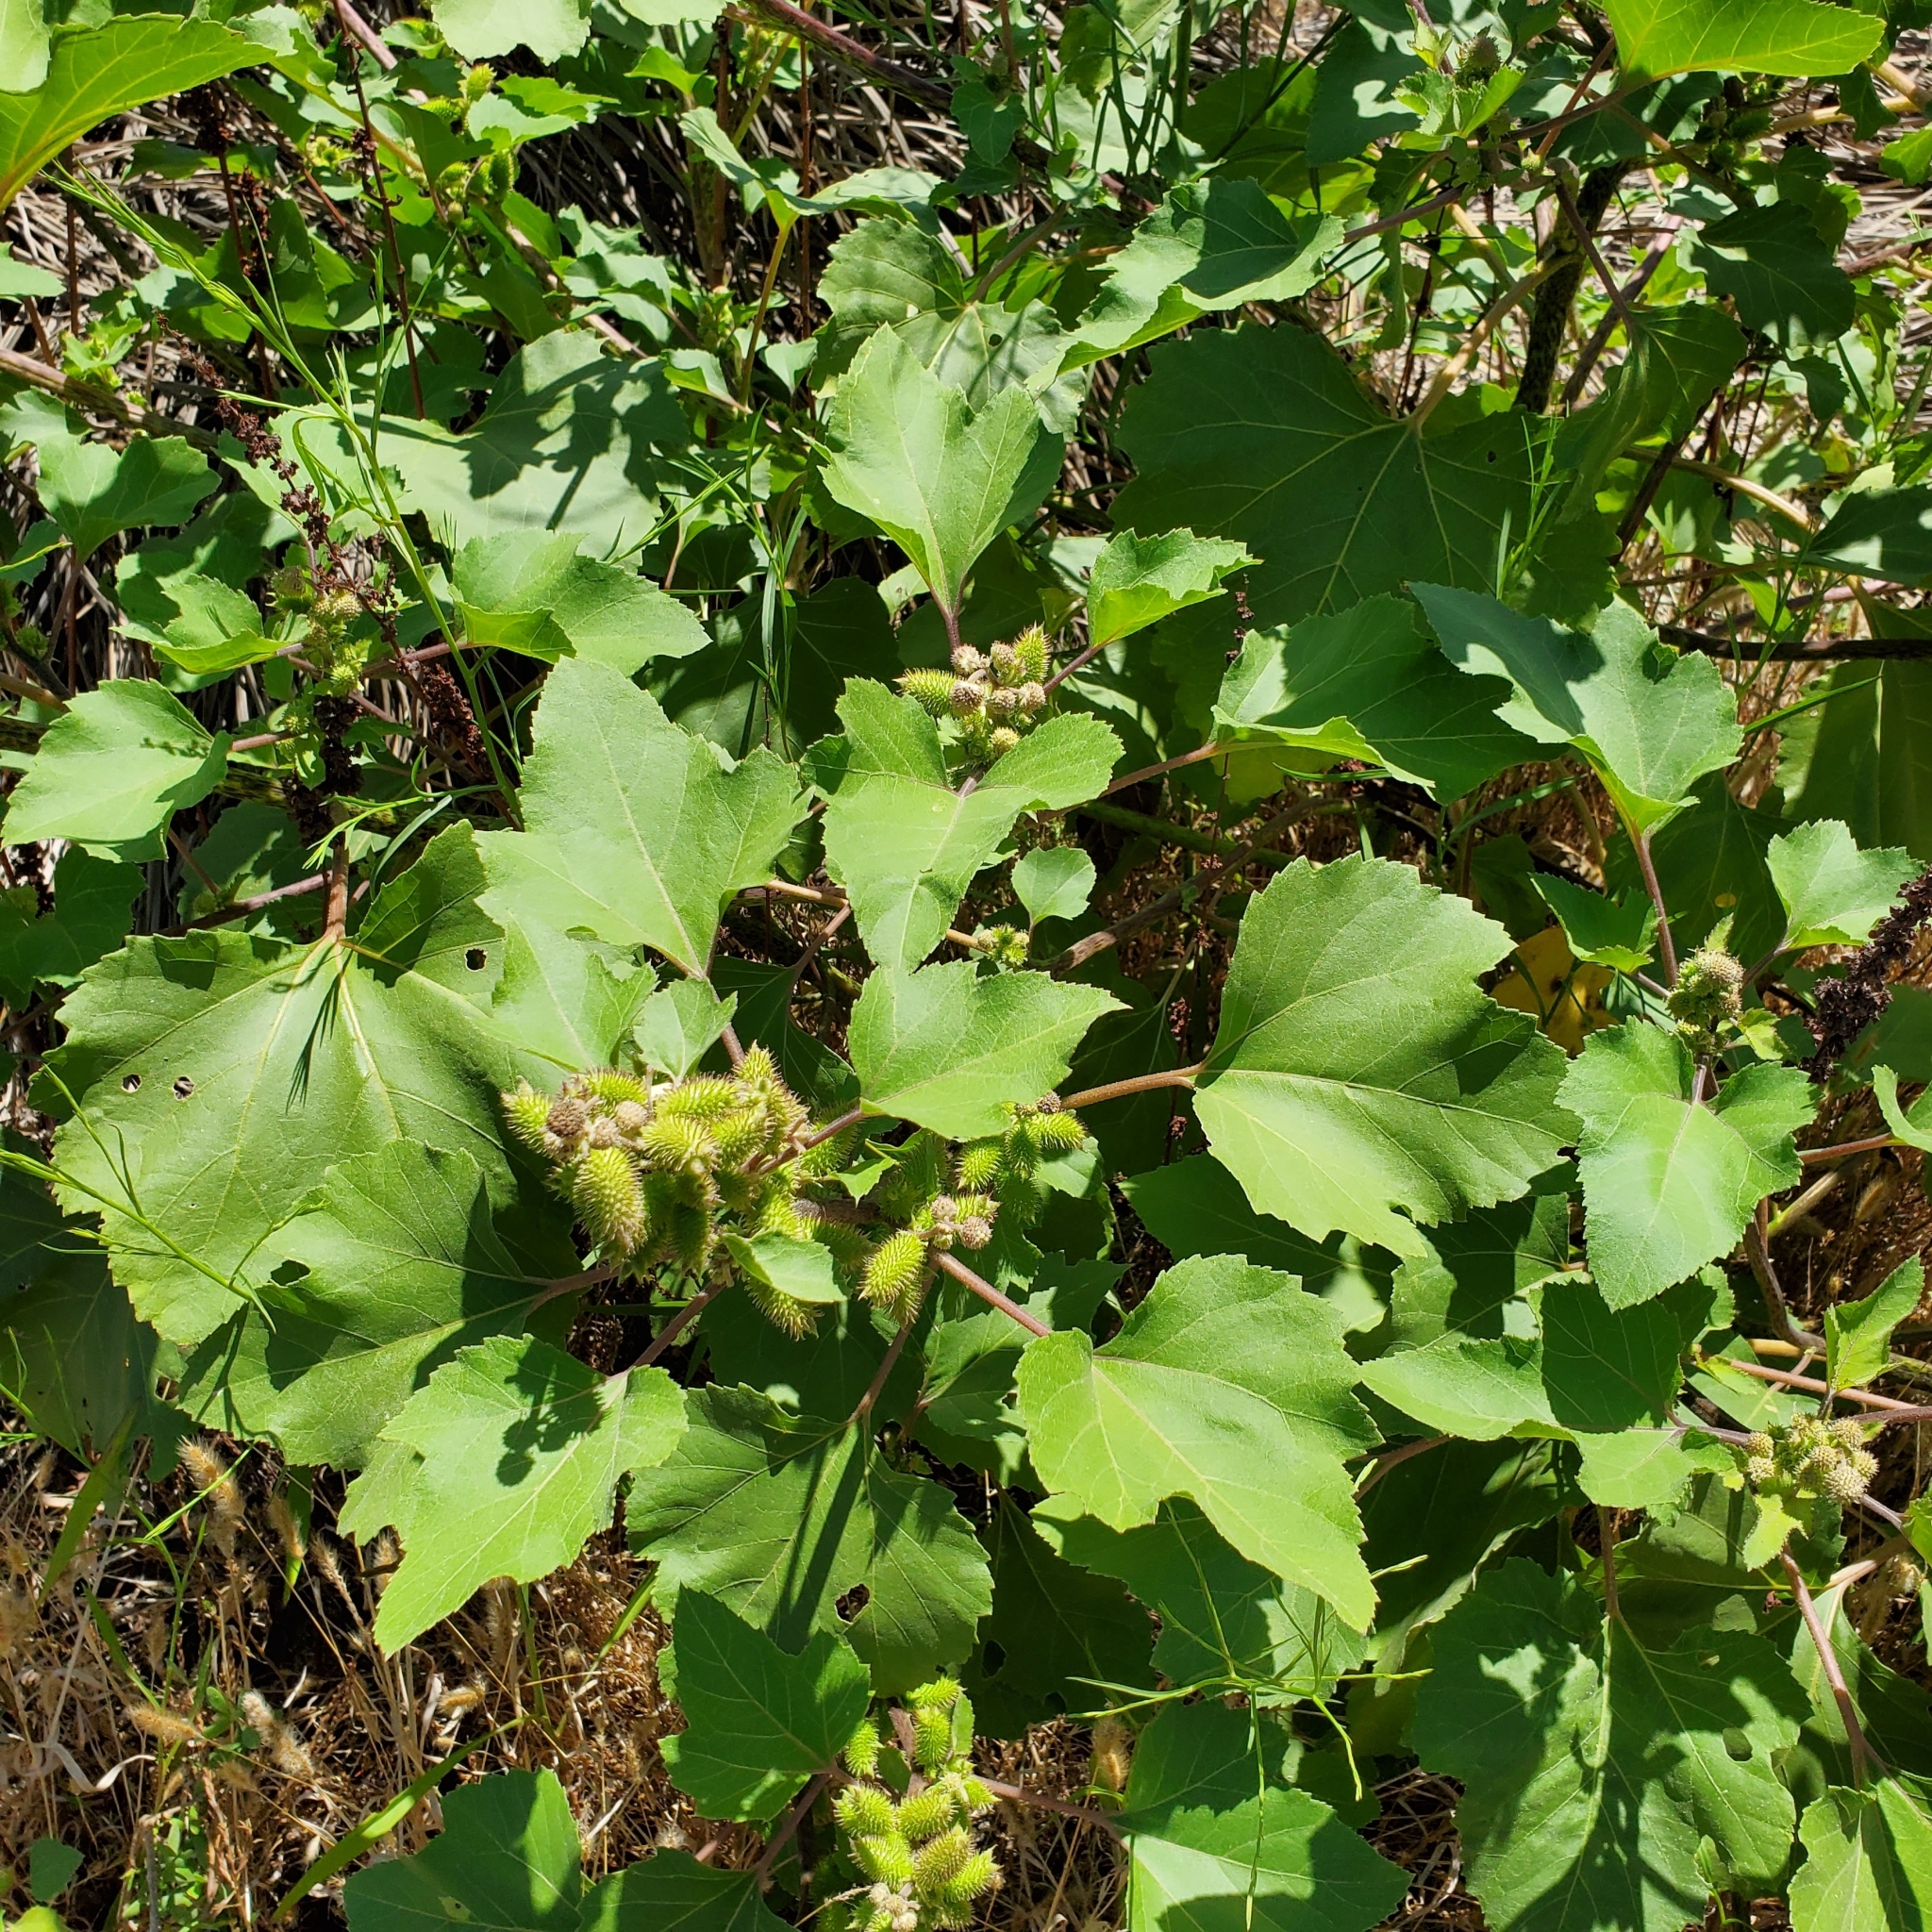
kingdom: Plantae
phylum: Tracheophyta
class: Magnoliopsida
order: Asterales
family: Asteraceae
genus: Xanthium
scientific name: Xanthium strumarium
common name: Rough cocklebur
